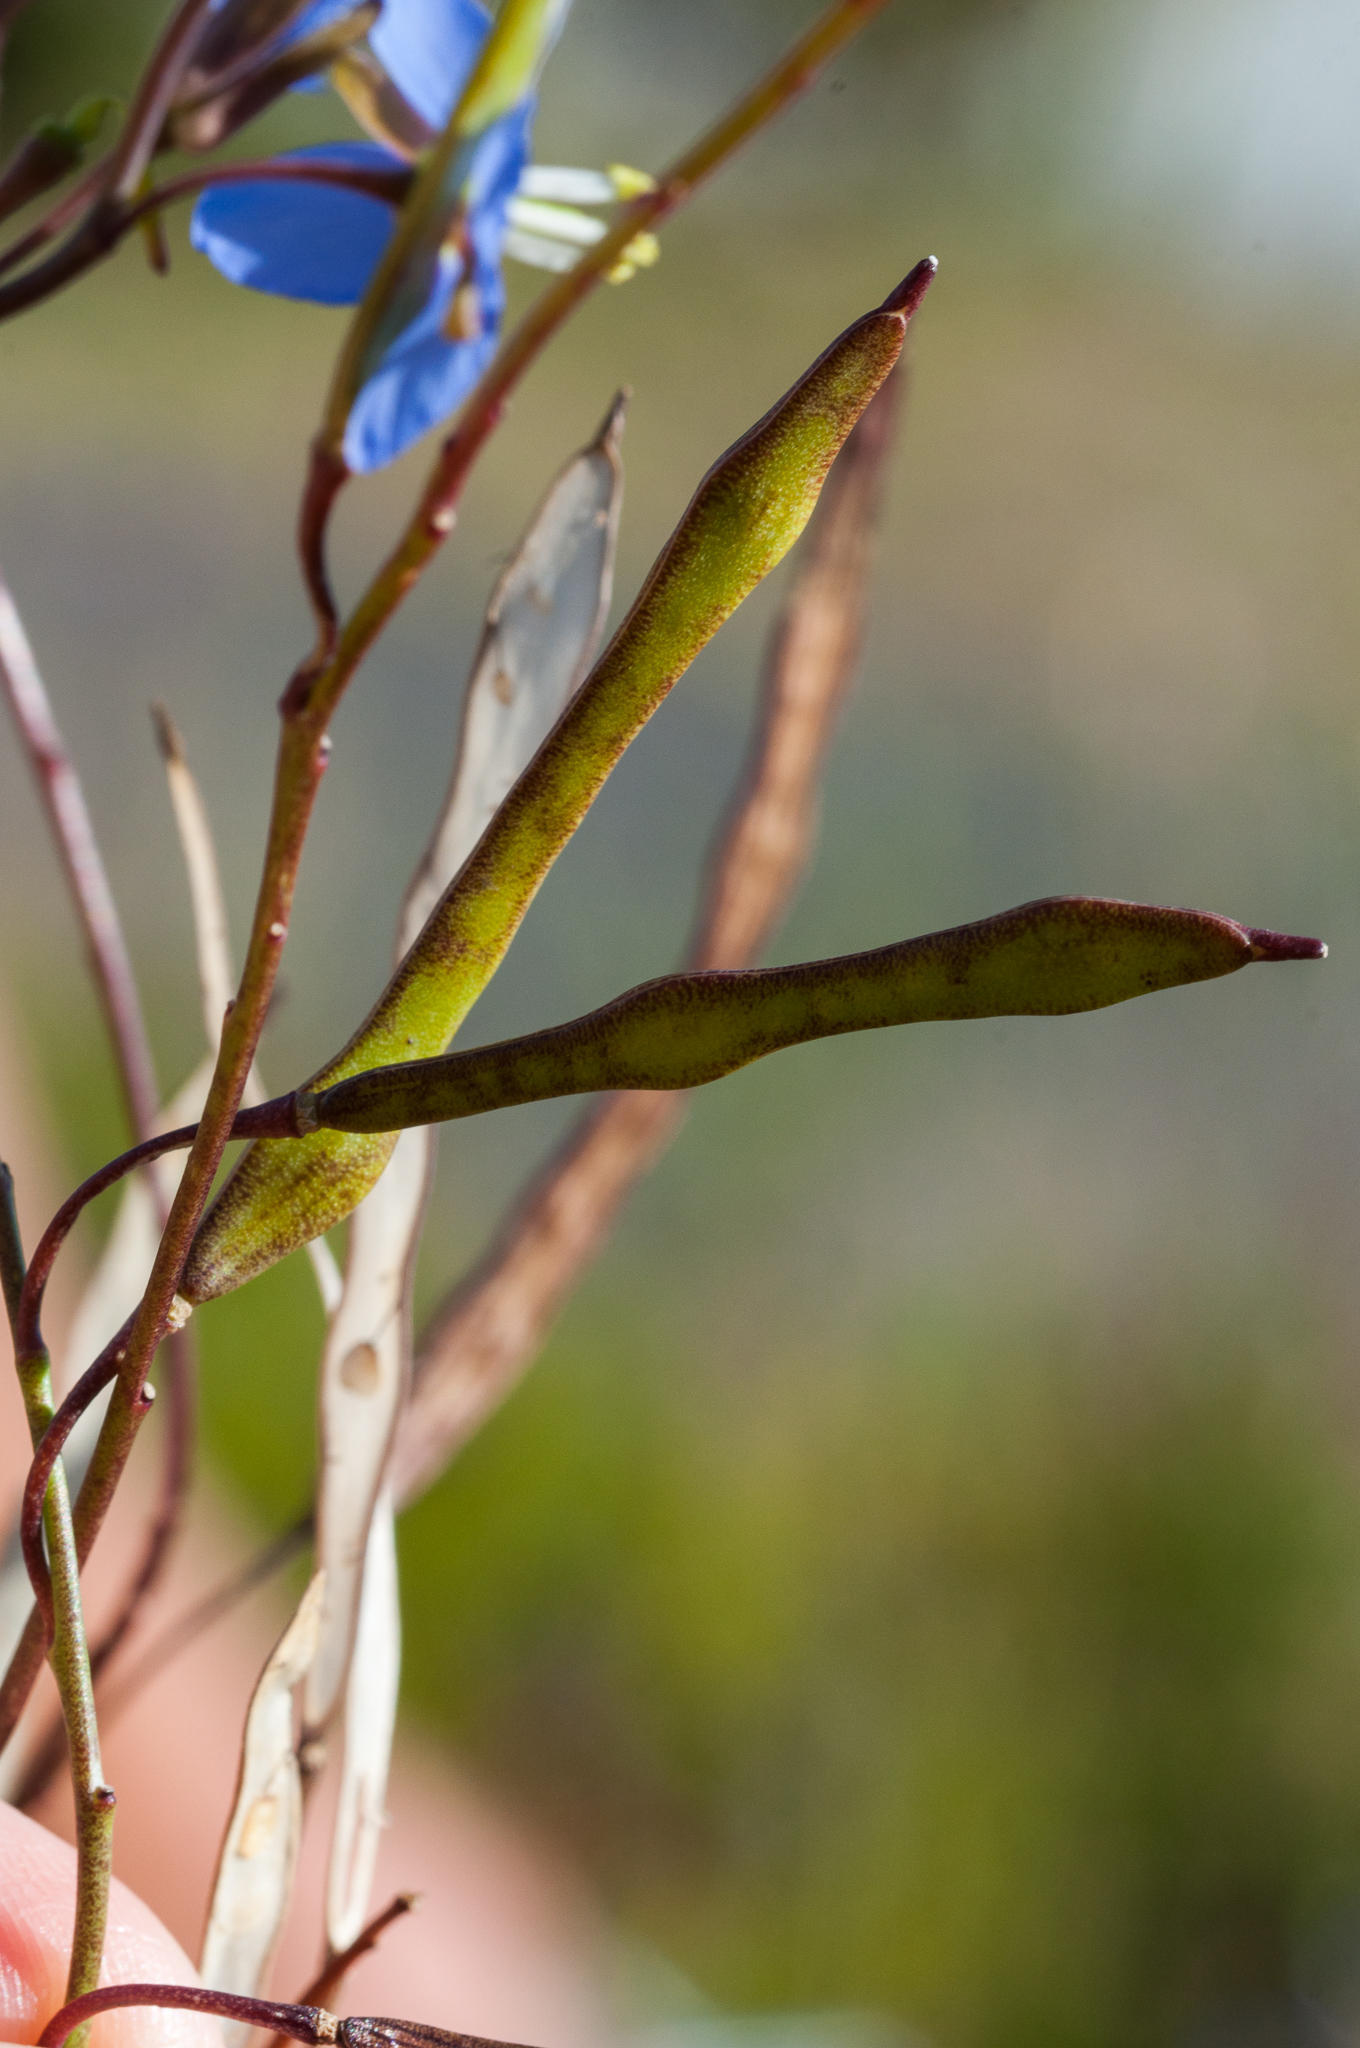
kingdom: Plantae
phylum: Tracheophyta
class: Magnoliopsida
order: Brassicales
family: Brassicaceae
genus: Heliophila
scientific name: Heliophila linearis
